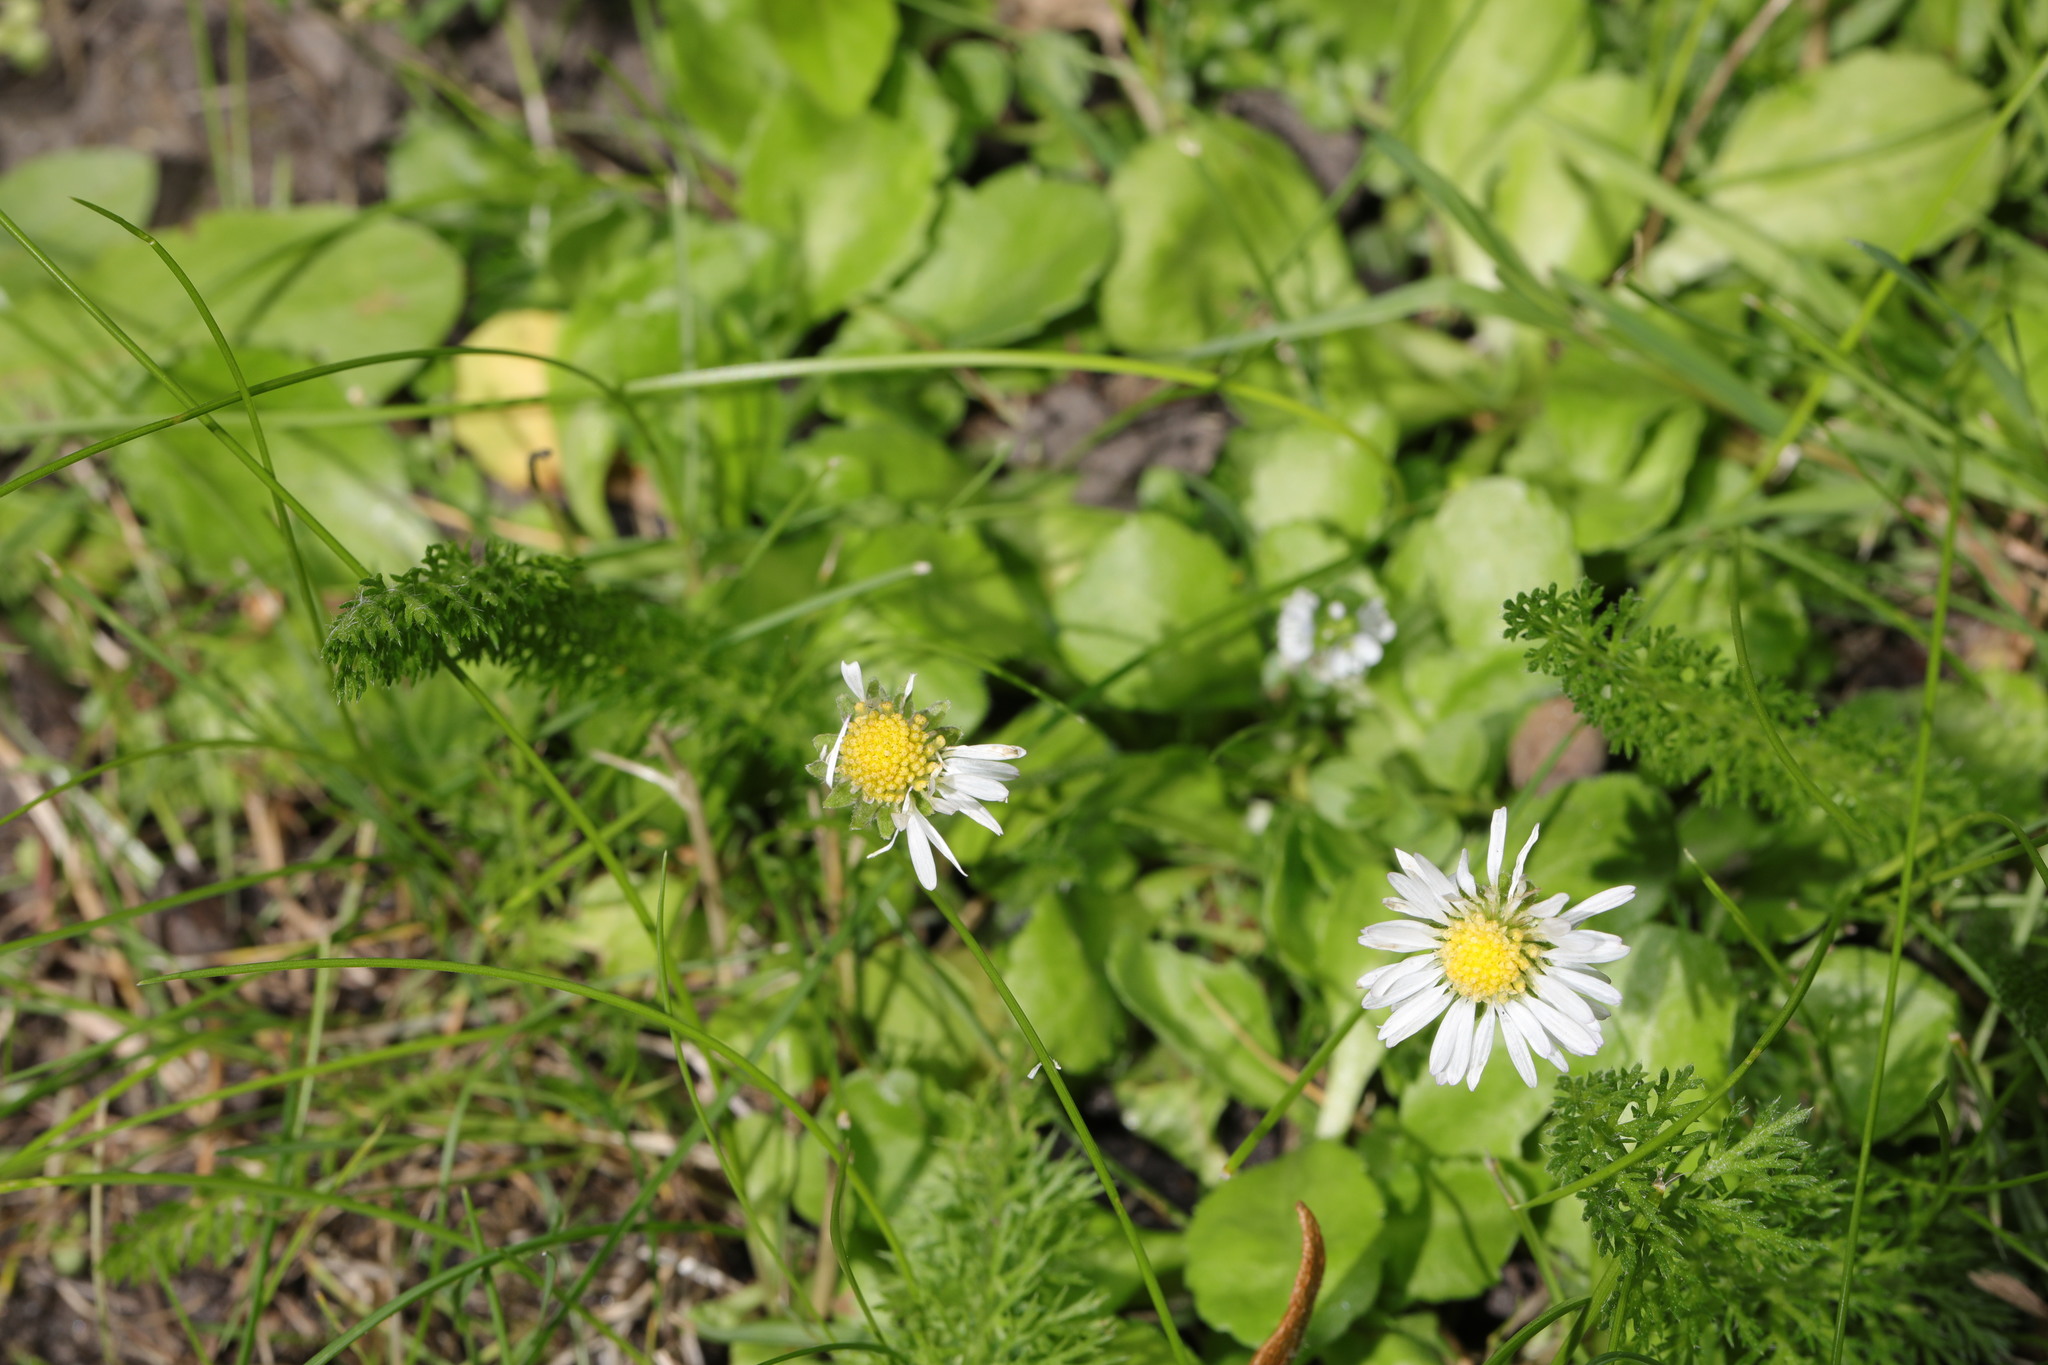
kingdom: Plantae
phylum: Tracheophyta
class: Magnoliopsida
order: Asterales
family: Asteraceae
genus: Bellis
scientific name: Bellis perennis
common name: Lawndaisy
